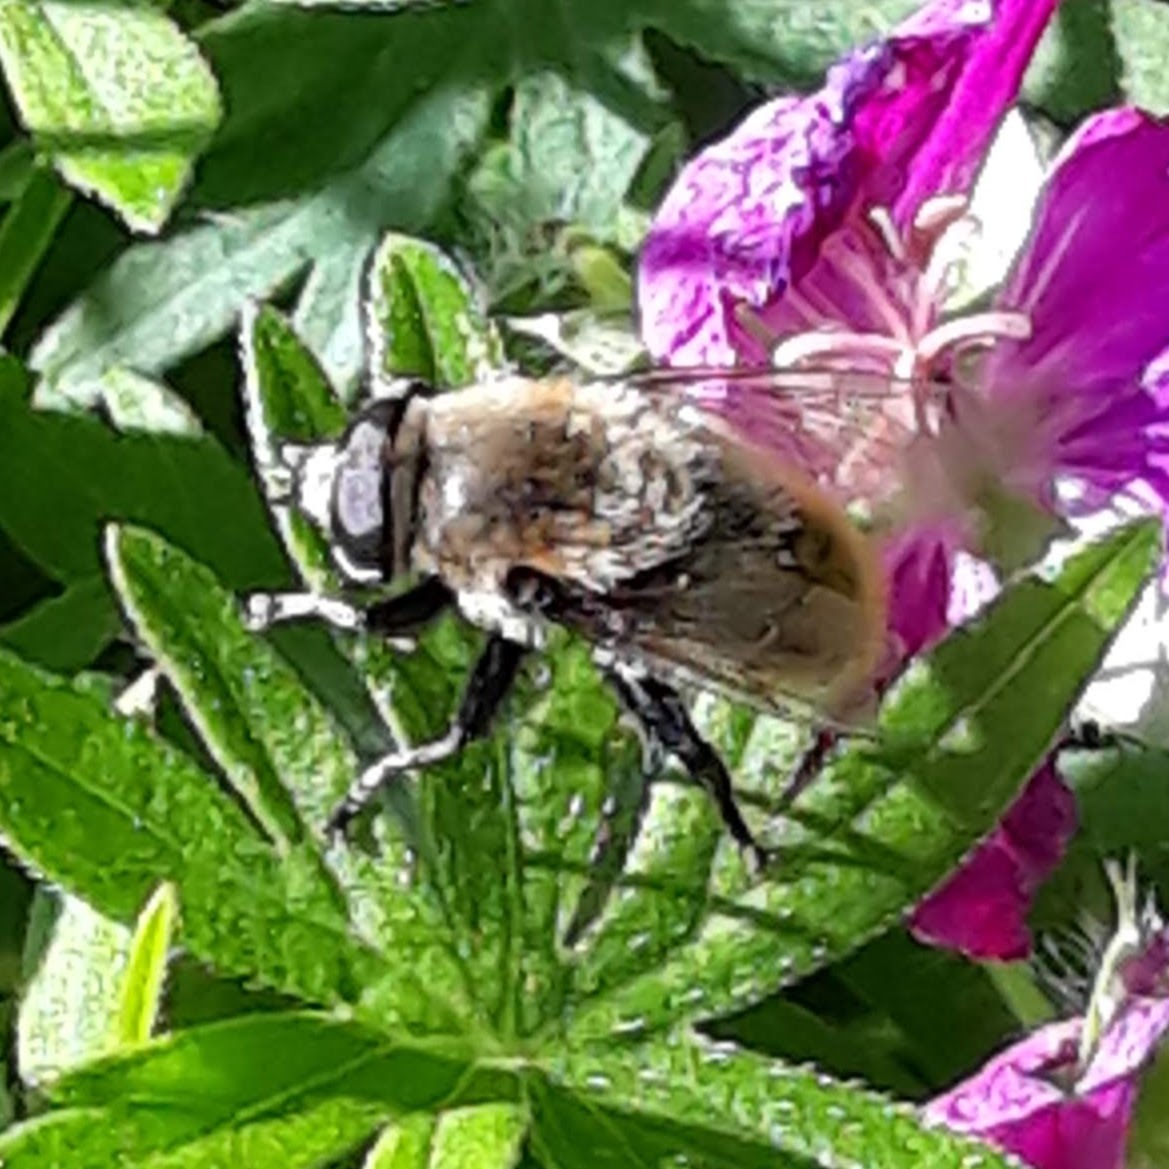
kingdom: Animalia
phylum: Arthropoda
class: Insecta
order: Diptera
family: Syrphidae
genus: Merodon
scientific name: Merodon equestris
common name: Greater bulb-fly
